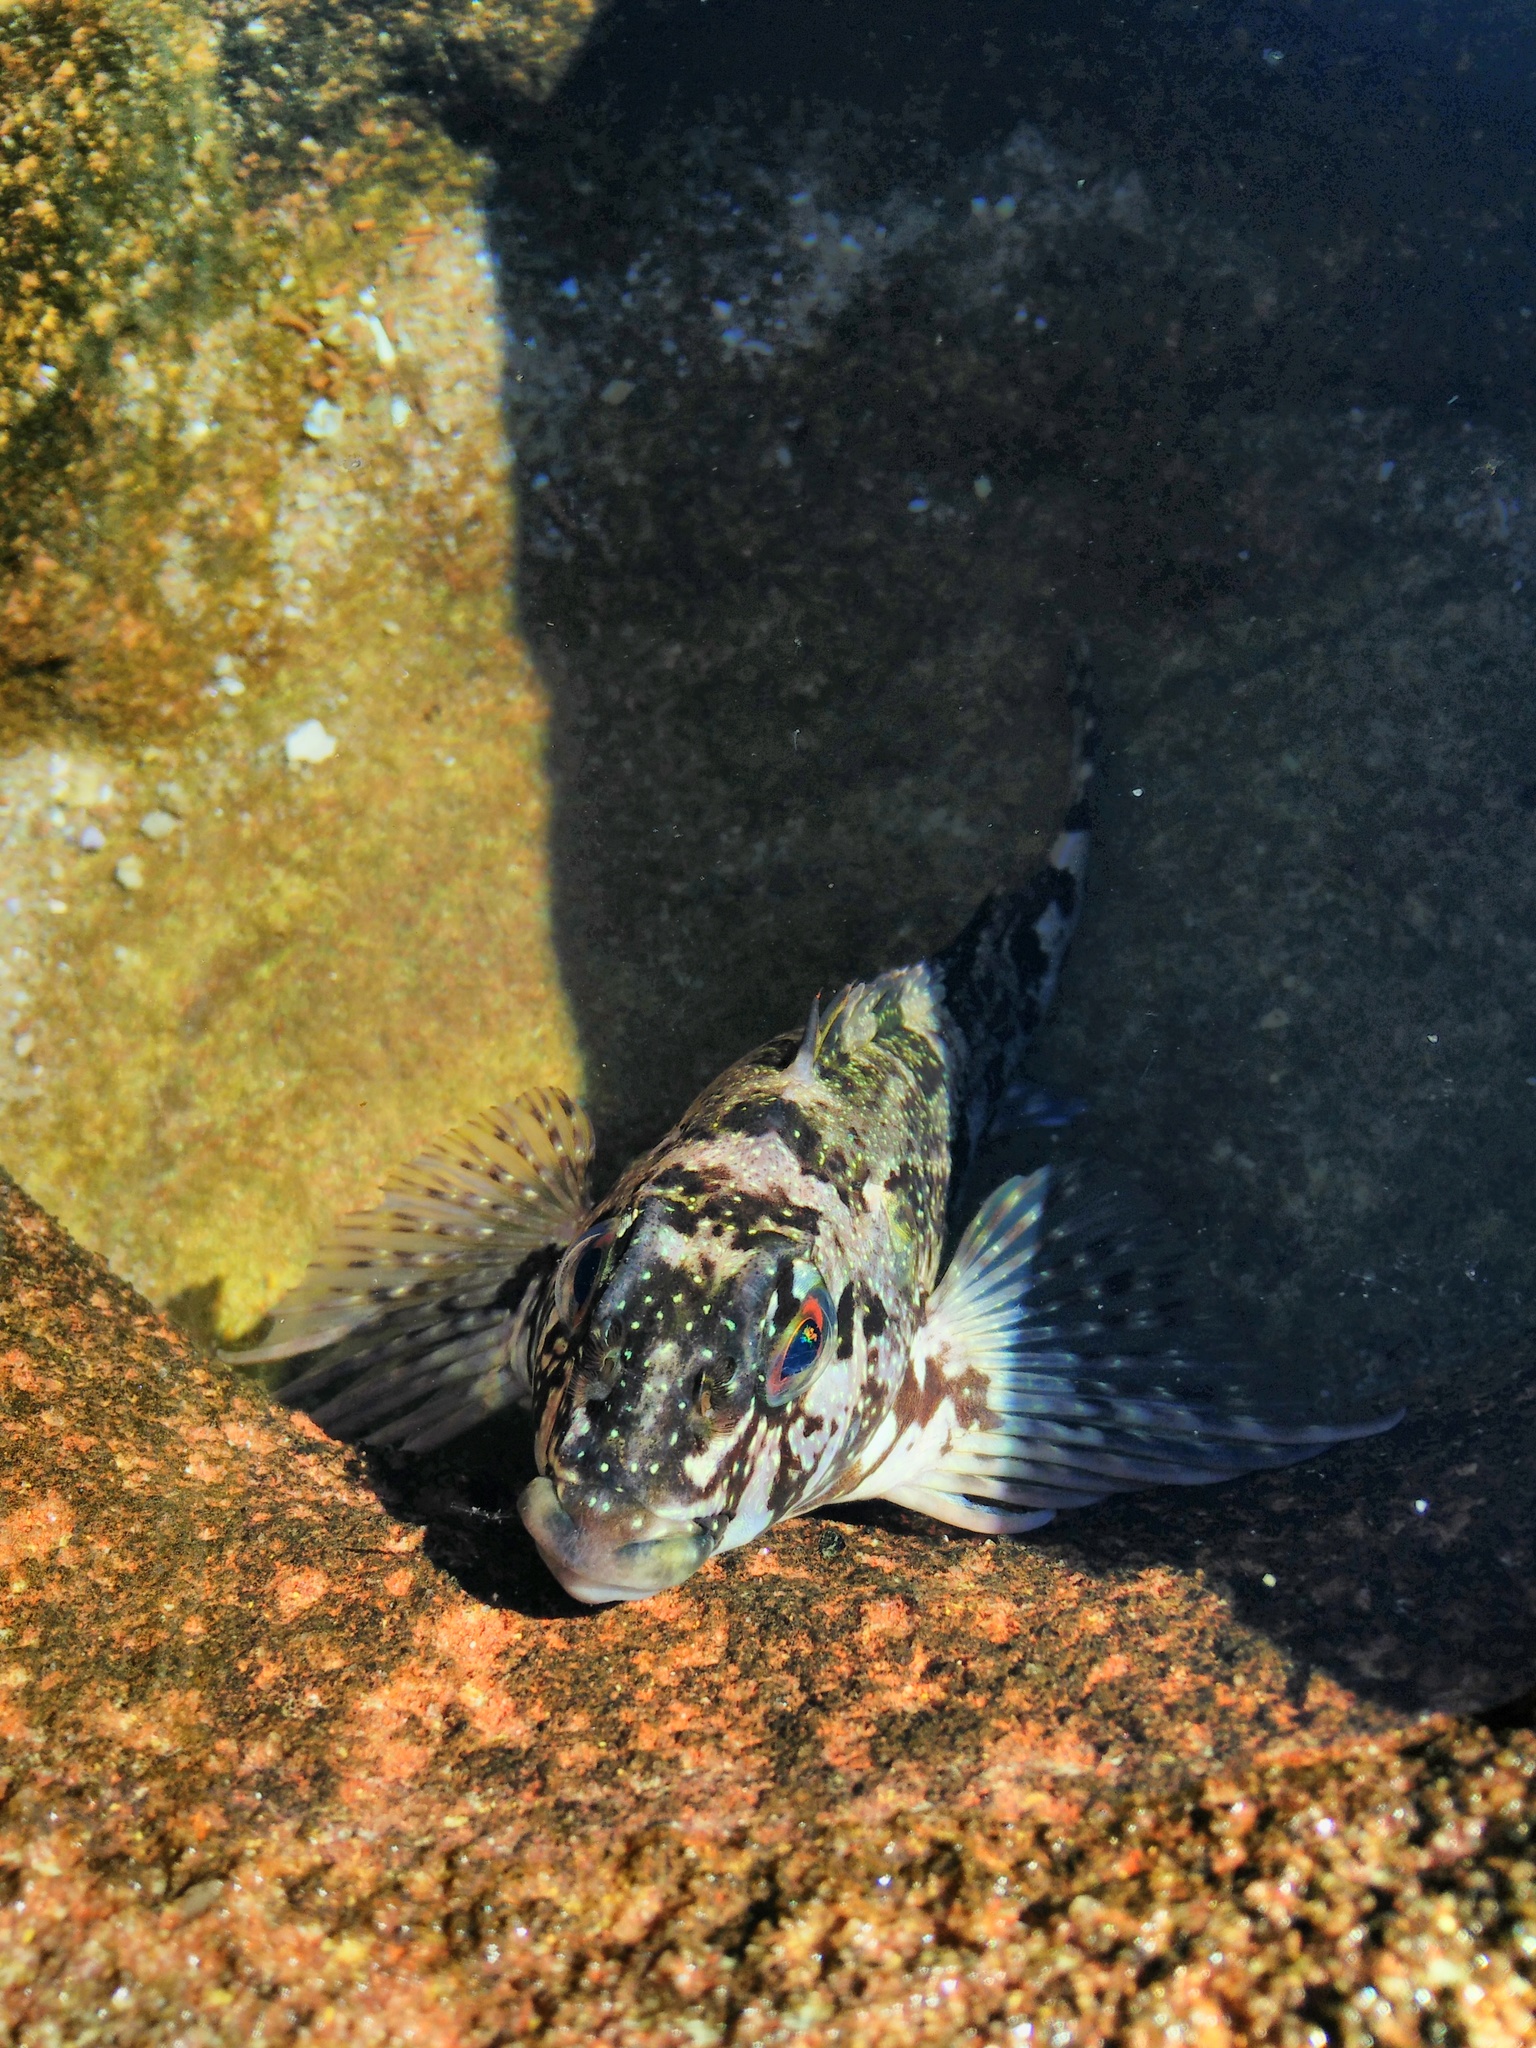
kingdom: Animalia
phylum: Chordata
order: Perciformes
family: Chironemidae
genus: Chironemus
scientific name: Chironemus marmoratus
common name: Kelpfish
